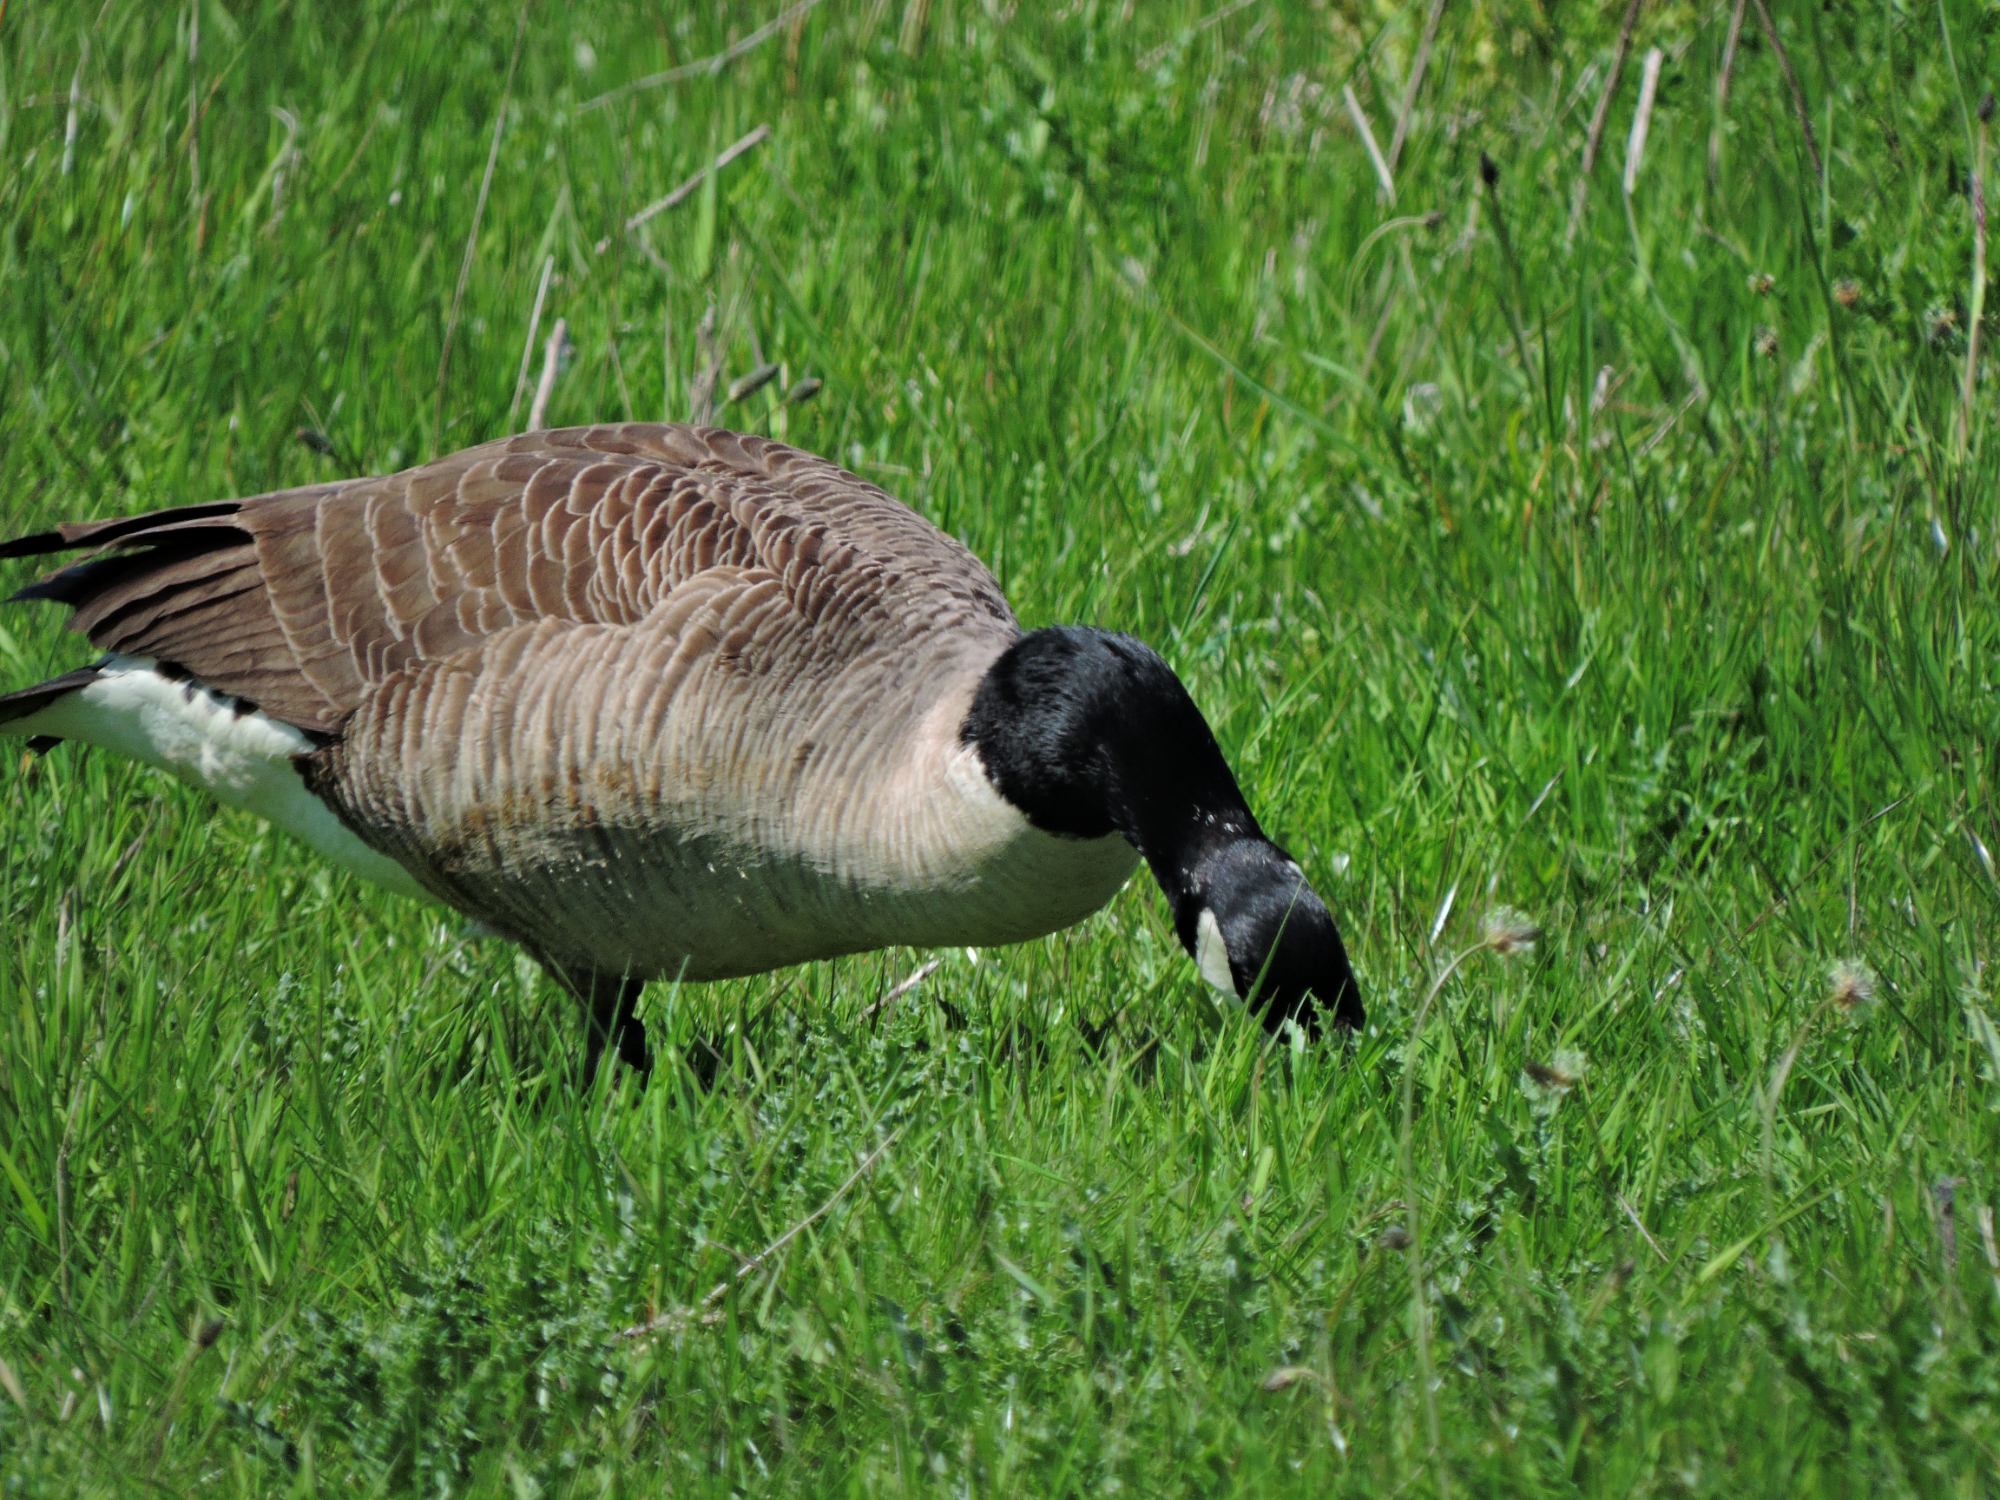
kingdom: Animalia
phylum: Chordata
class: Aves
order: Anseriformes
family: Anatidae
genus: Branta
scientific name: Branta canadensis
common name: Canada goose
